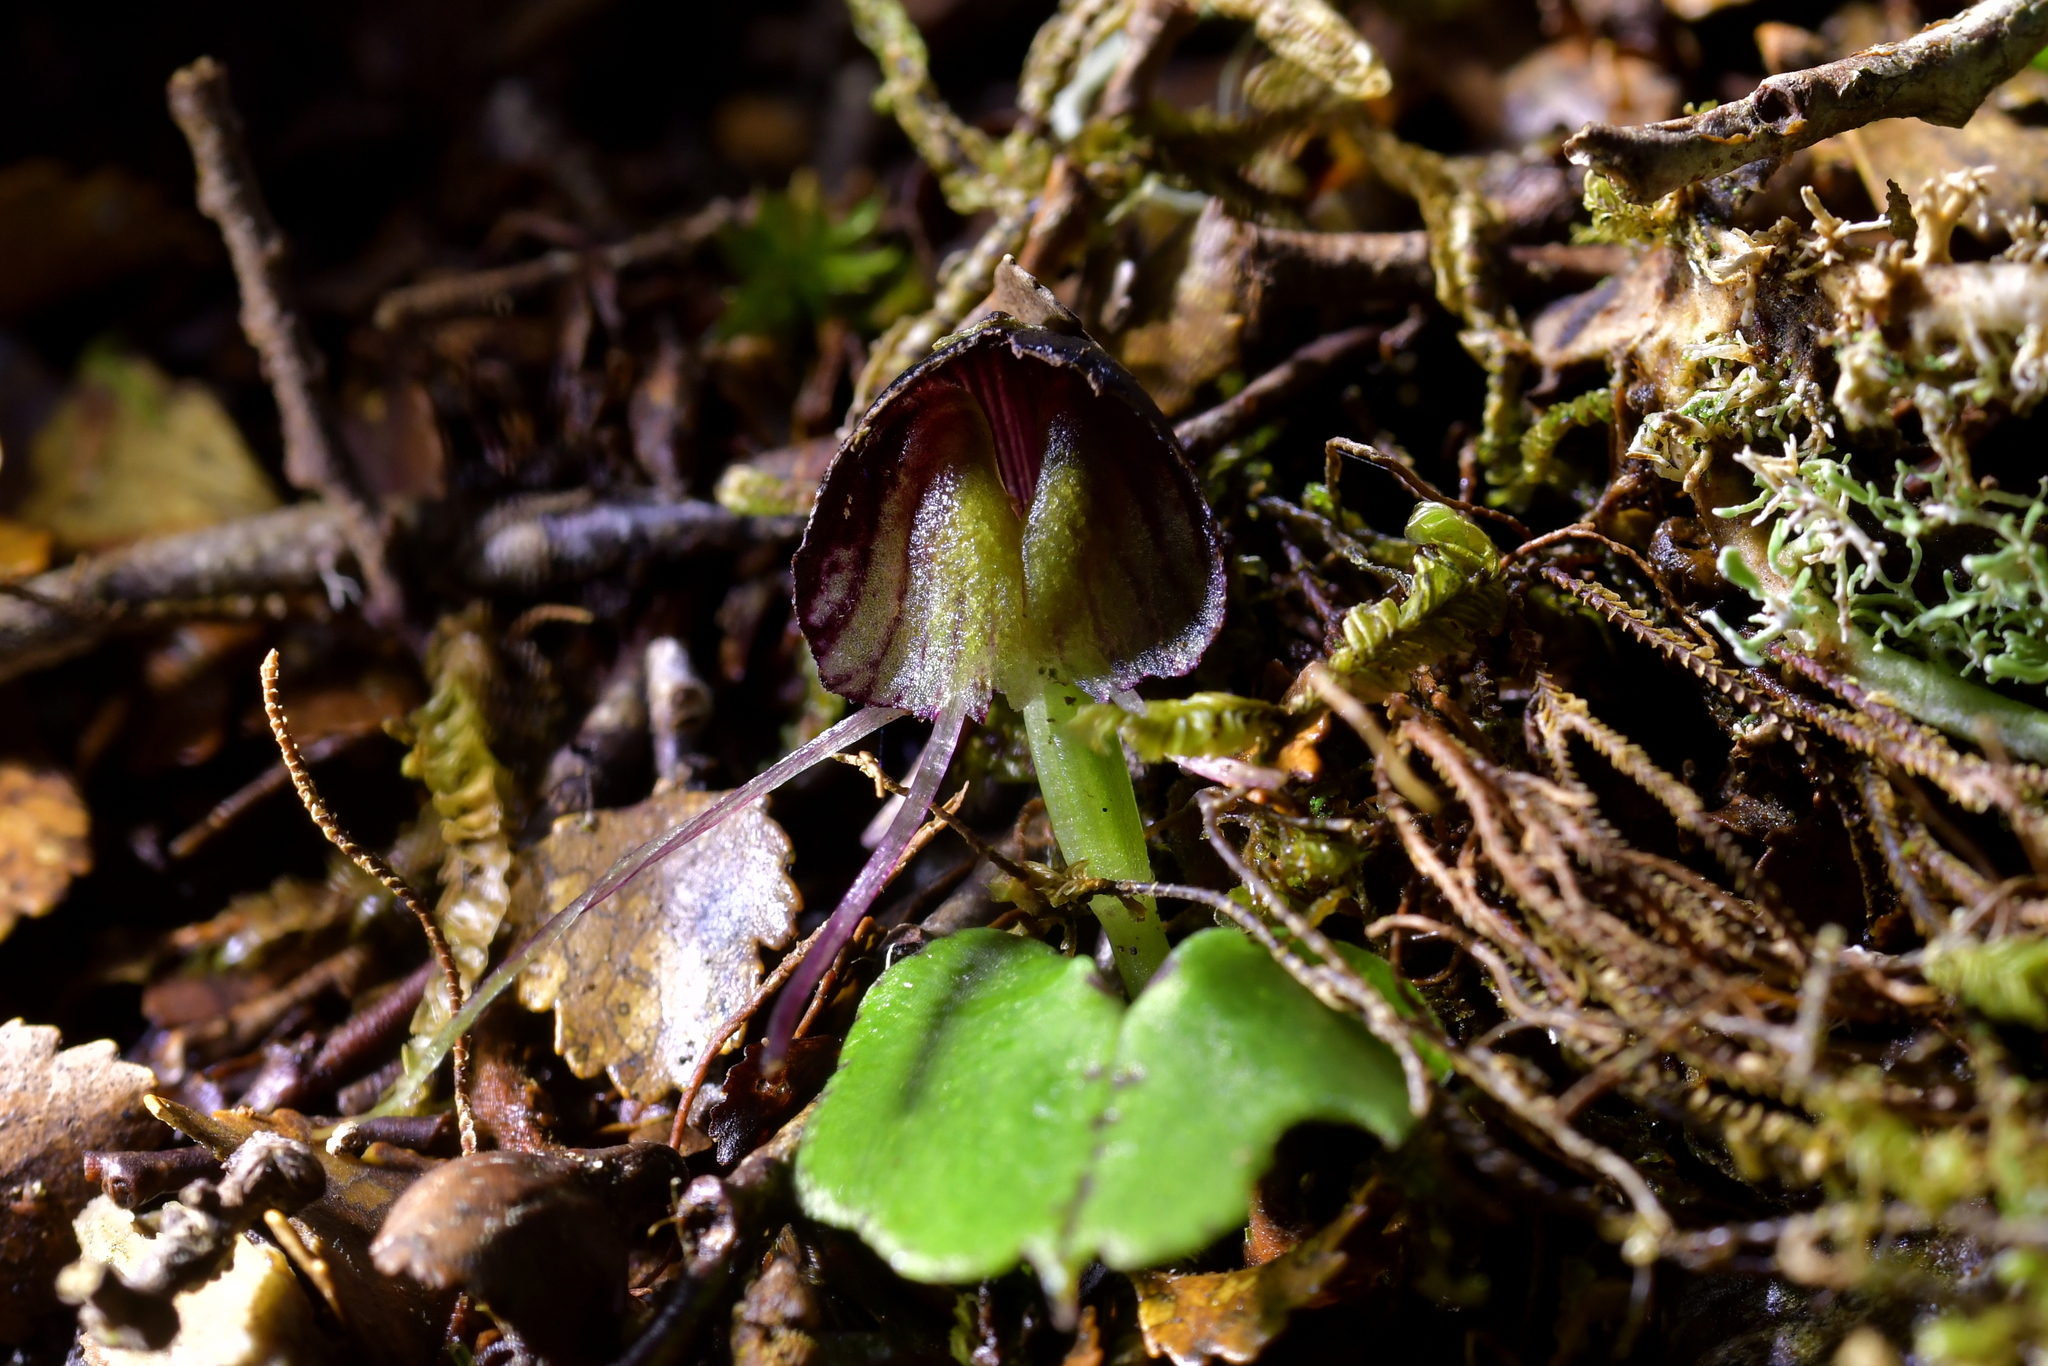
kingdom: Plantae
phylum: Tracheophyta
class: Liliopsida
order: Asparagales
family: Orchidaceae
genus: Corybas
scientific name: Corybas trilobus
